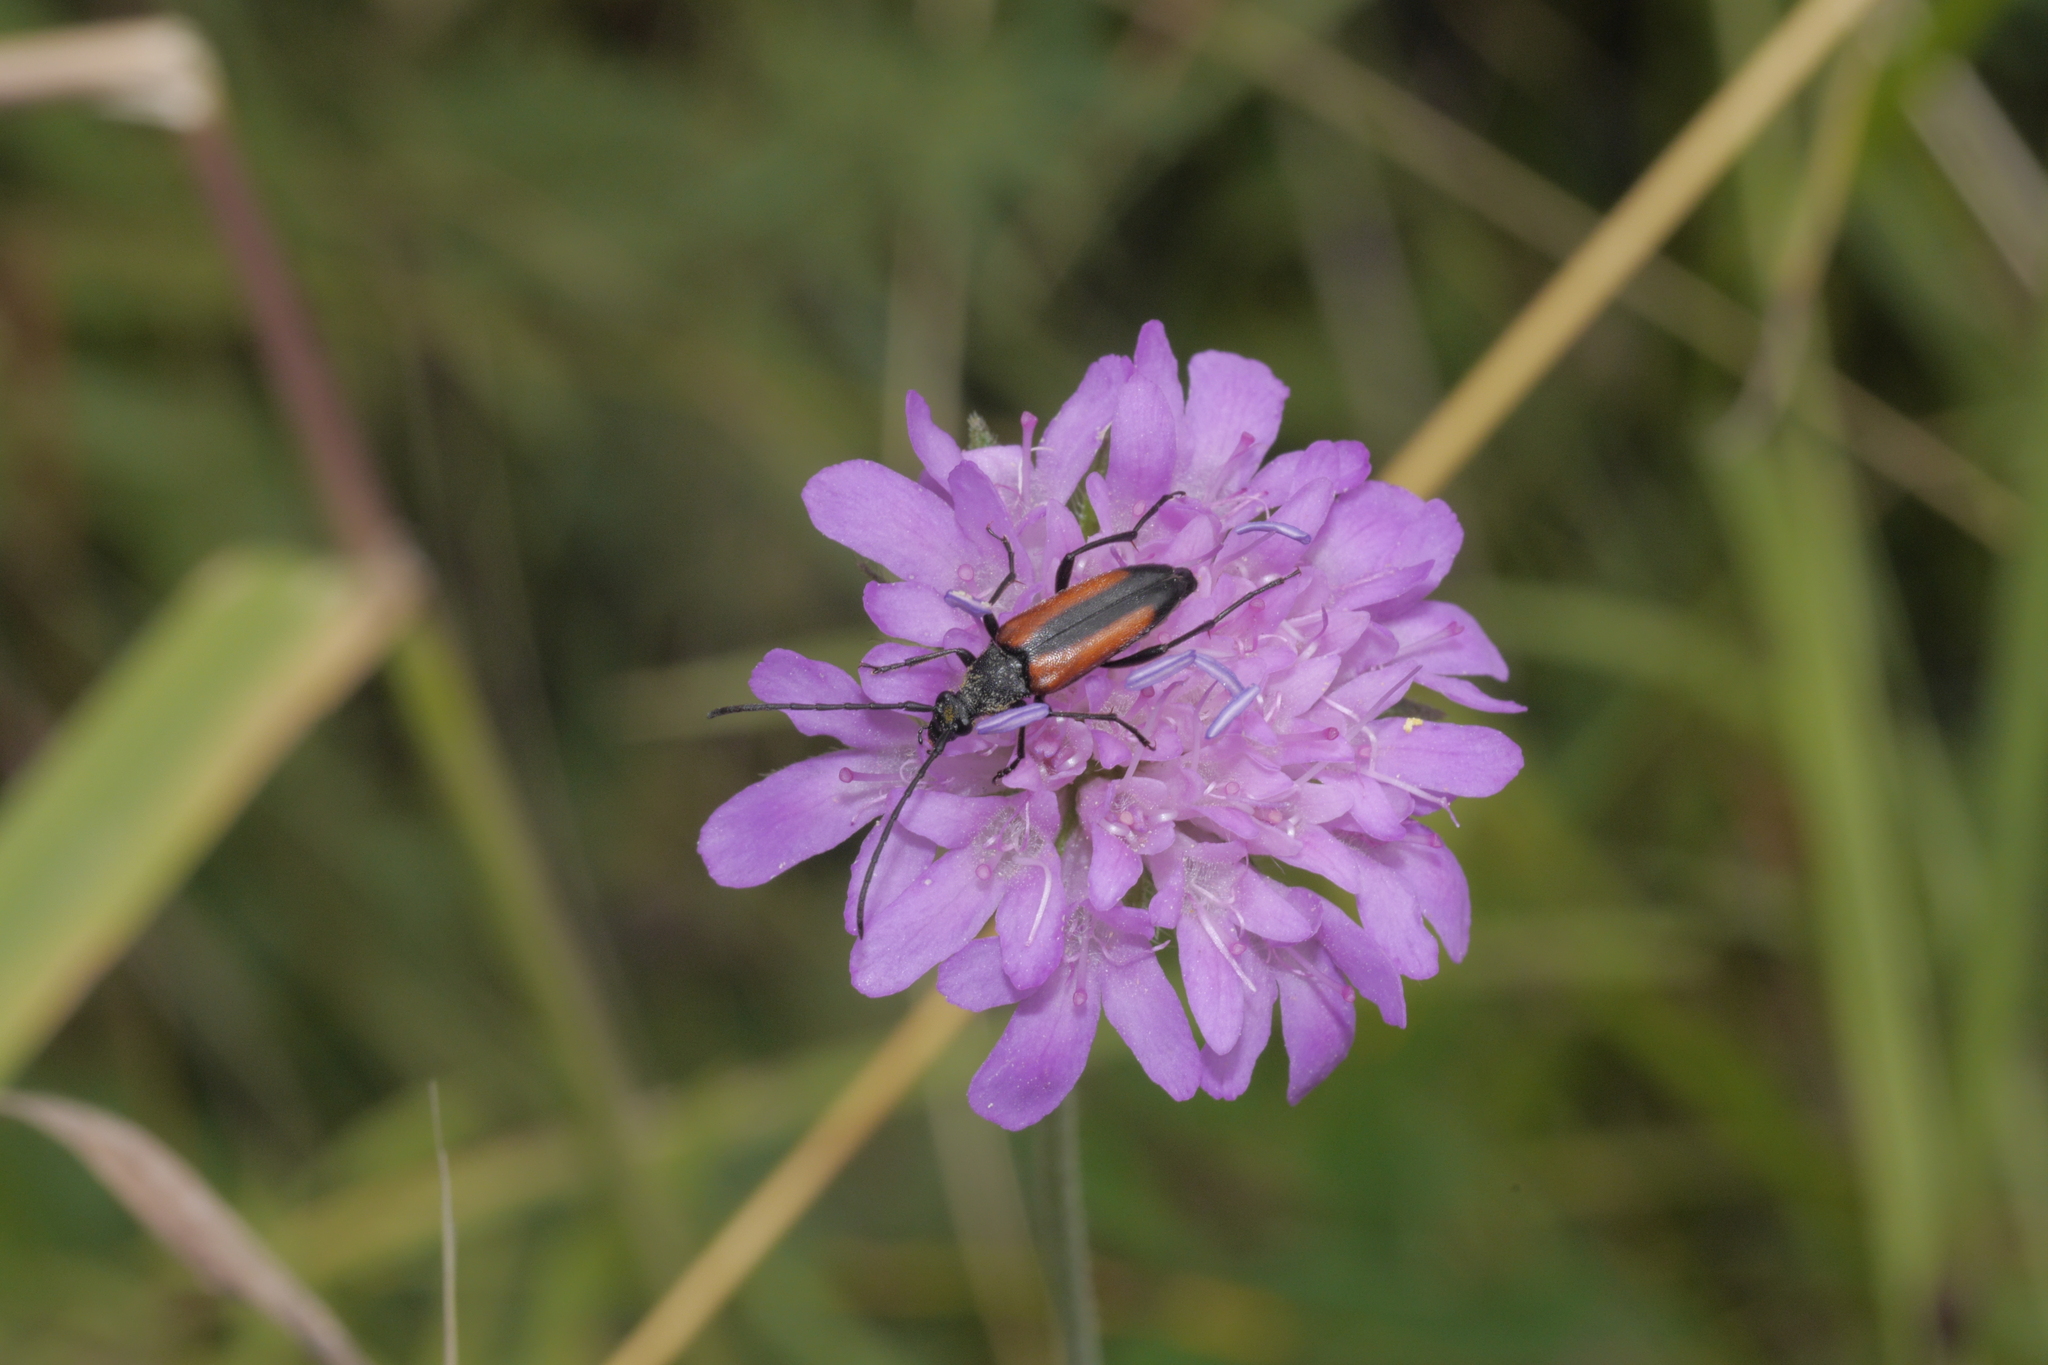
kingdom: Animalia
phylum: Arthropoda
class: Insecta
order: Coleoptera
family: Cerambycidae
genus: Stenurella
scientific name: Stenurella melanura
